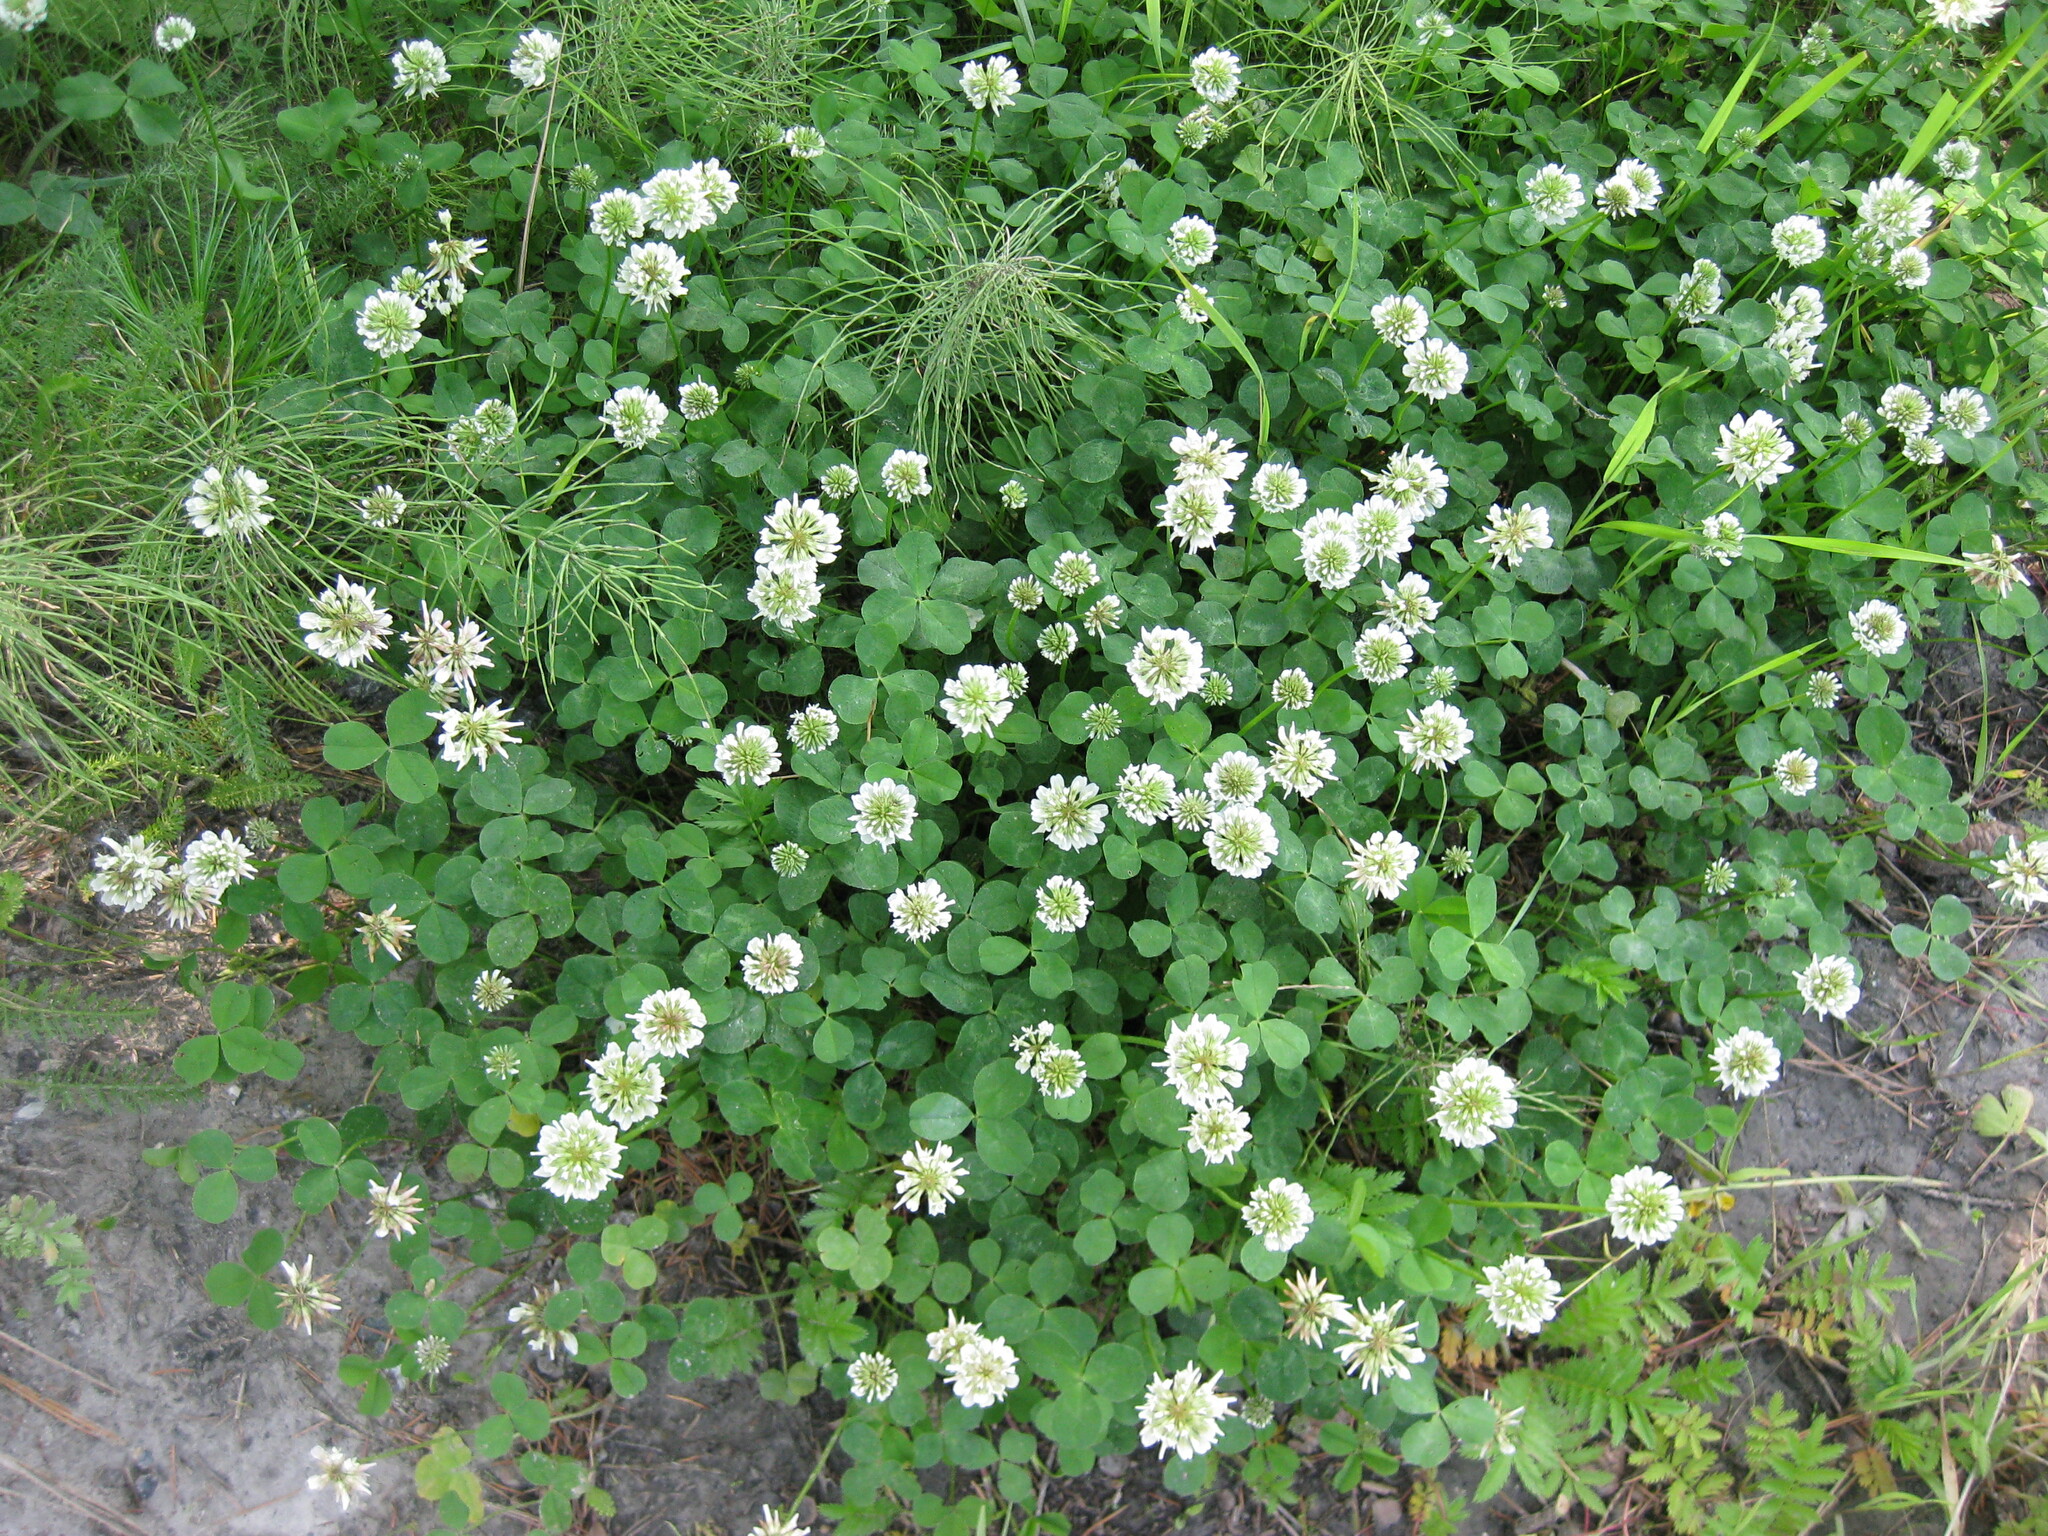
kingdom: Plantae
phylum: Tracheophyta
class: Magnoliopsida
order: Fabales
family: Fabaceae
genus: Trifolium
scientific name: Trifolium repens
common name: White clover
